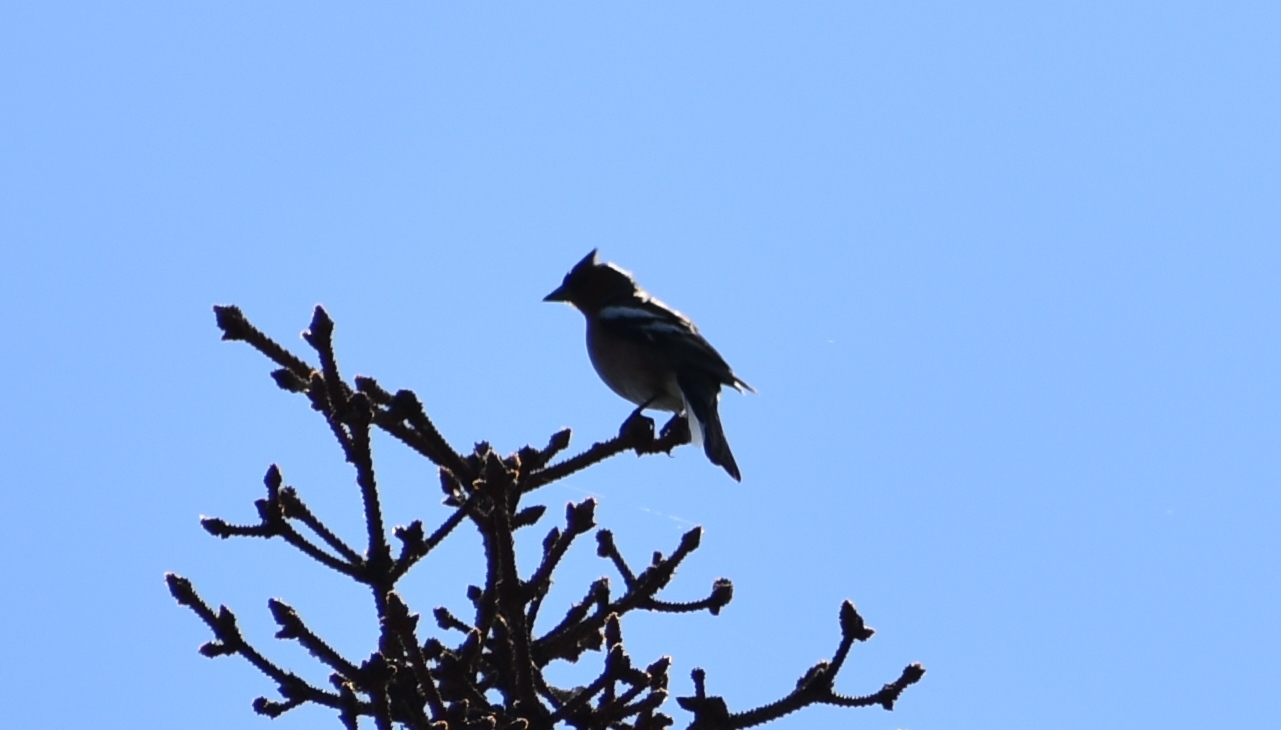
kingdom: Animalia
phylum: Chordata
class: Aves
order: Passeriformes
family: Fringillidae
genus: Fringilla
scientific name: Fringilla coelebs
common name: Common chaffinch
